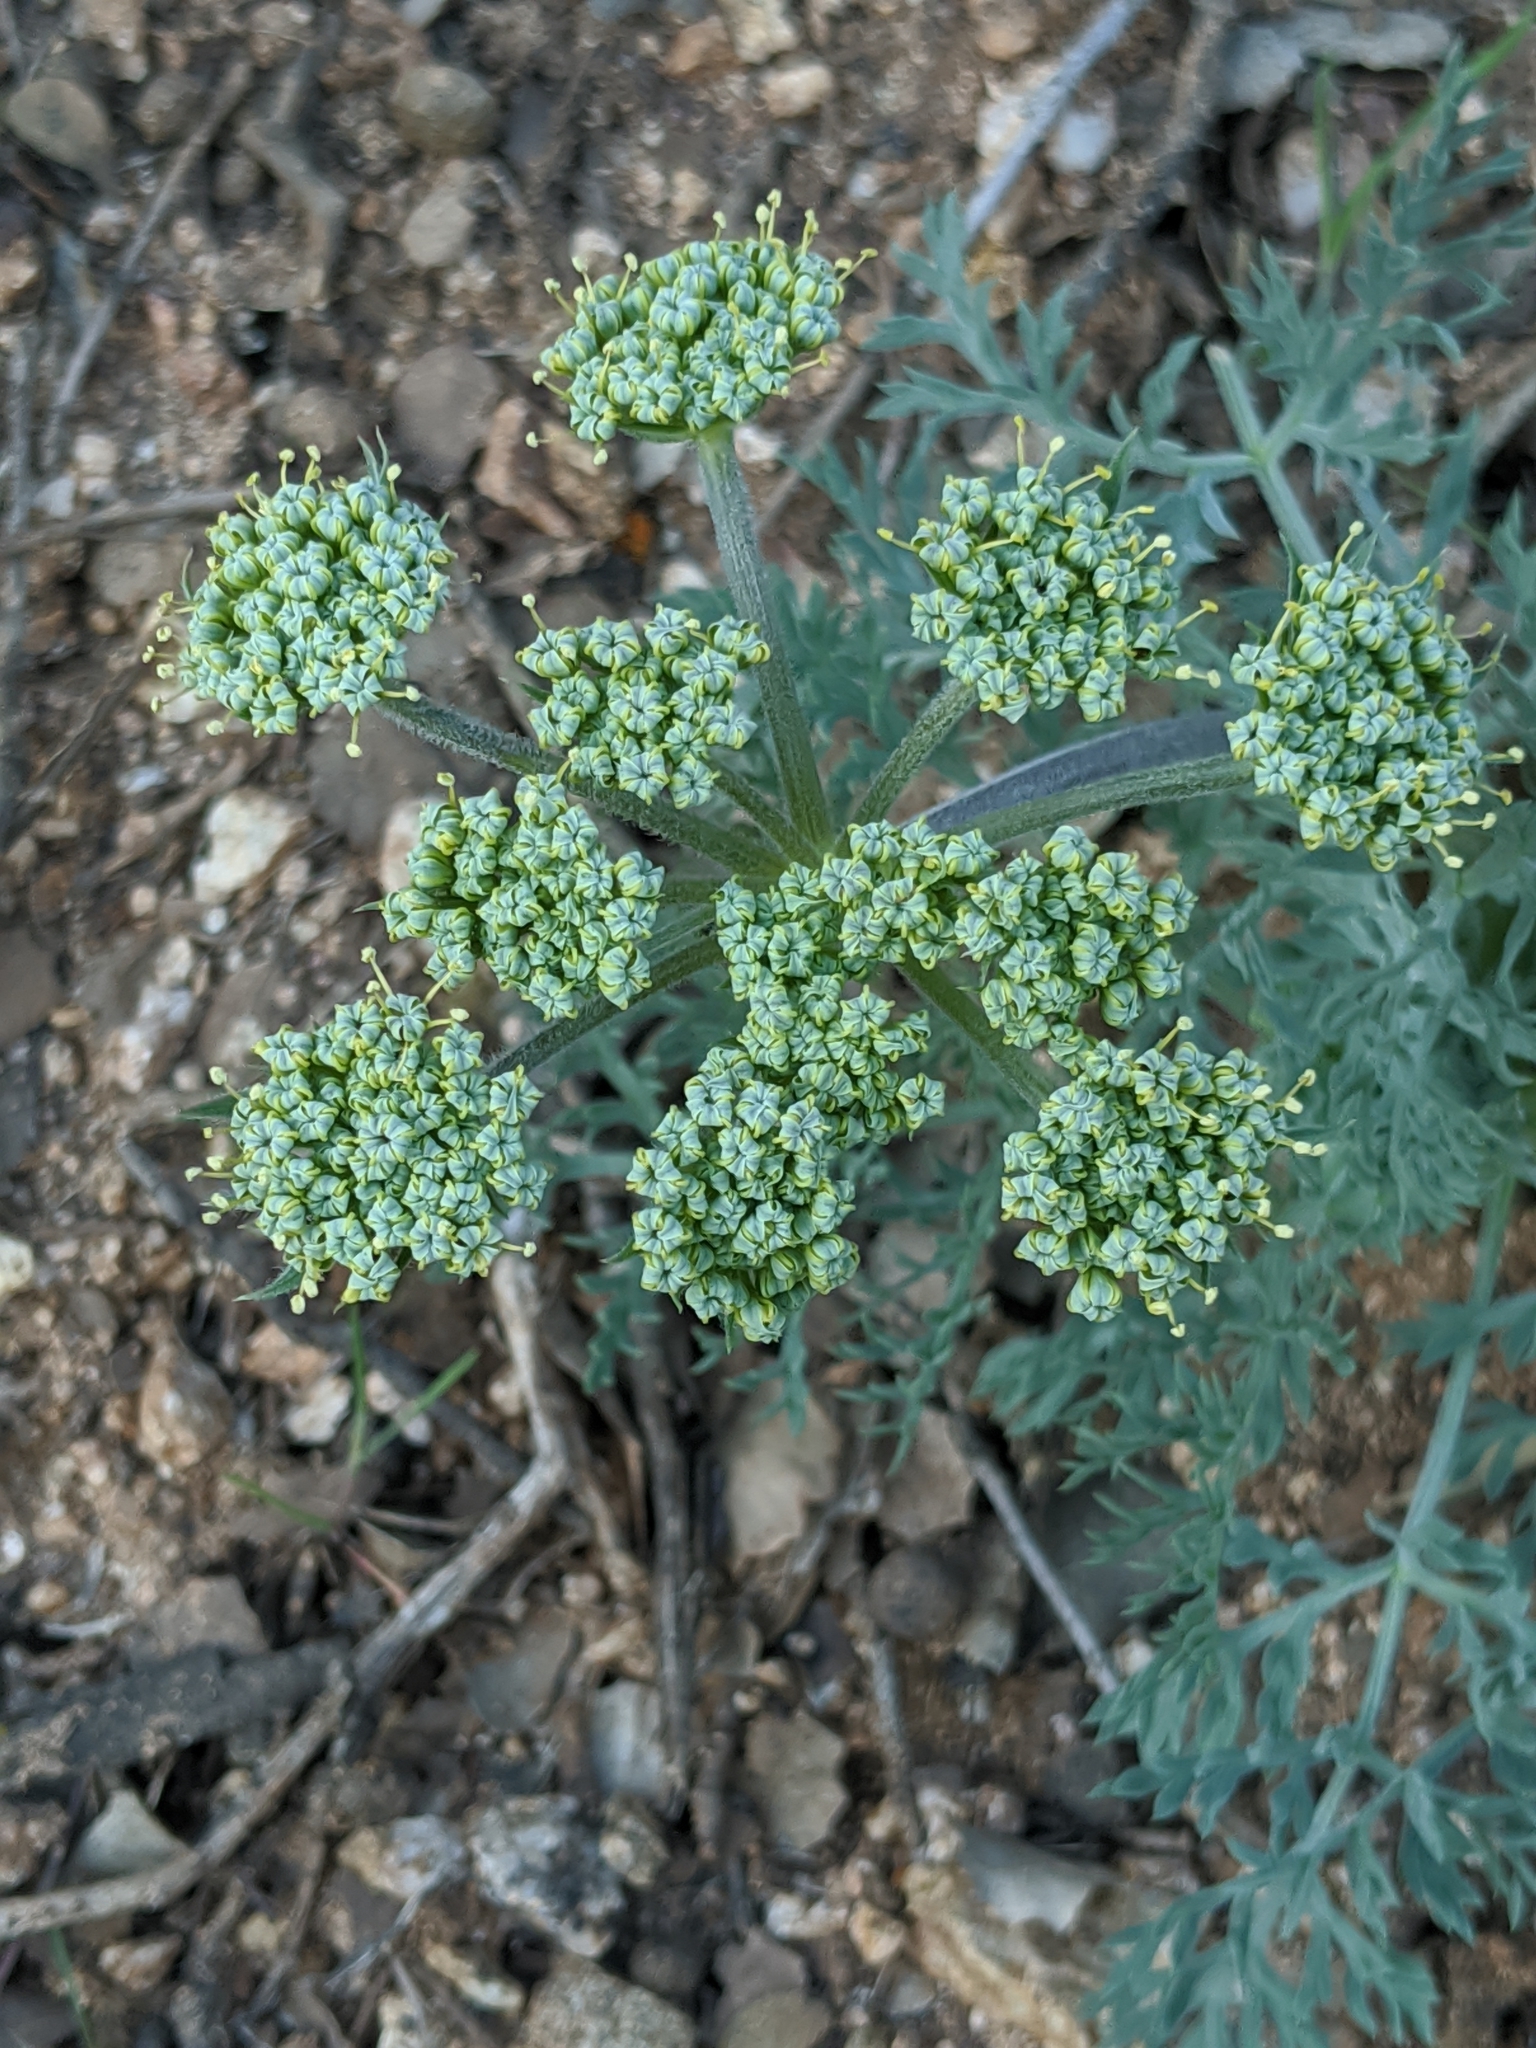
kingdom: Plantae
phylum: Tracheophyta
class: Magnoliopsida
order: Apiales
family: Apiaceae
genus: Lomatium
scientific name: Lomatium macrocarpum
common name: Big-seed biscuitroot
